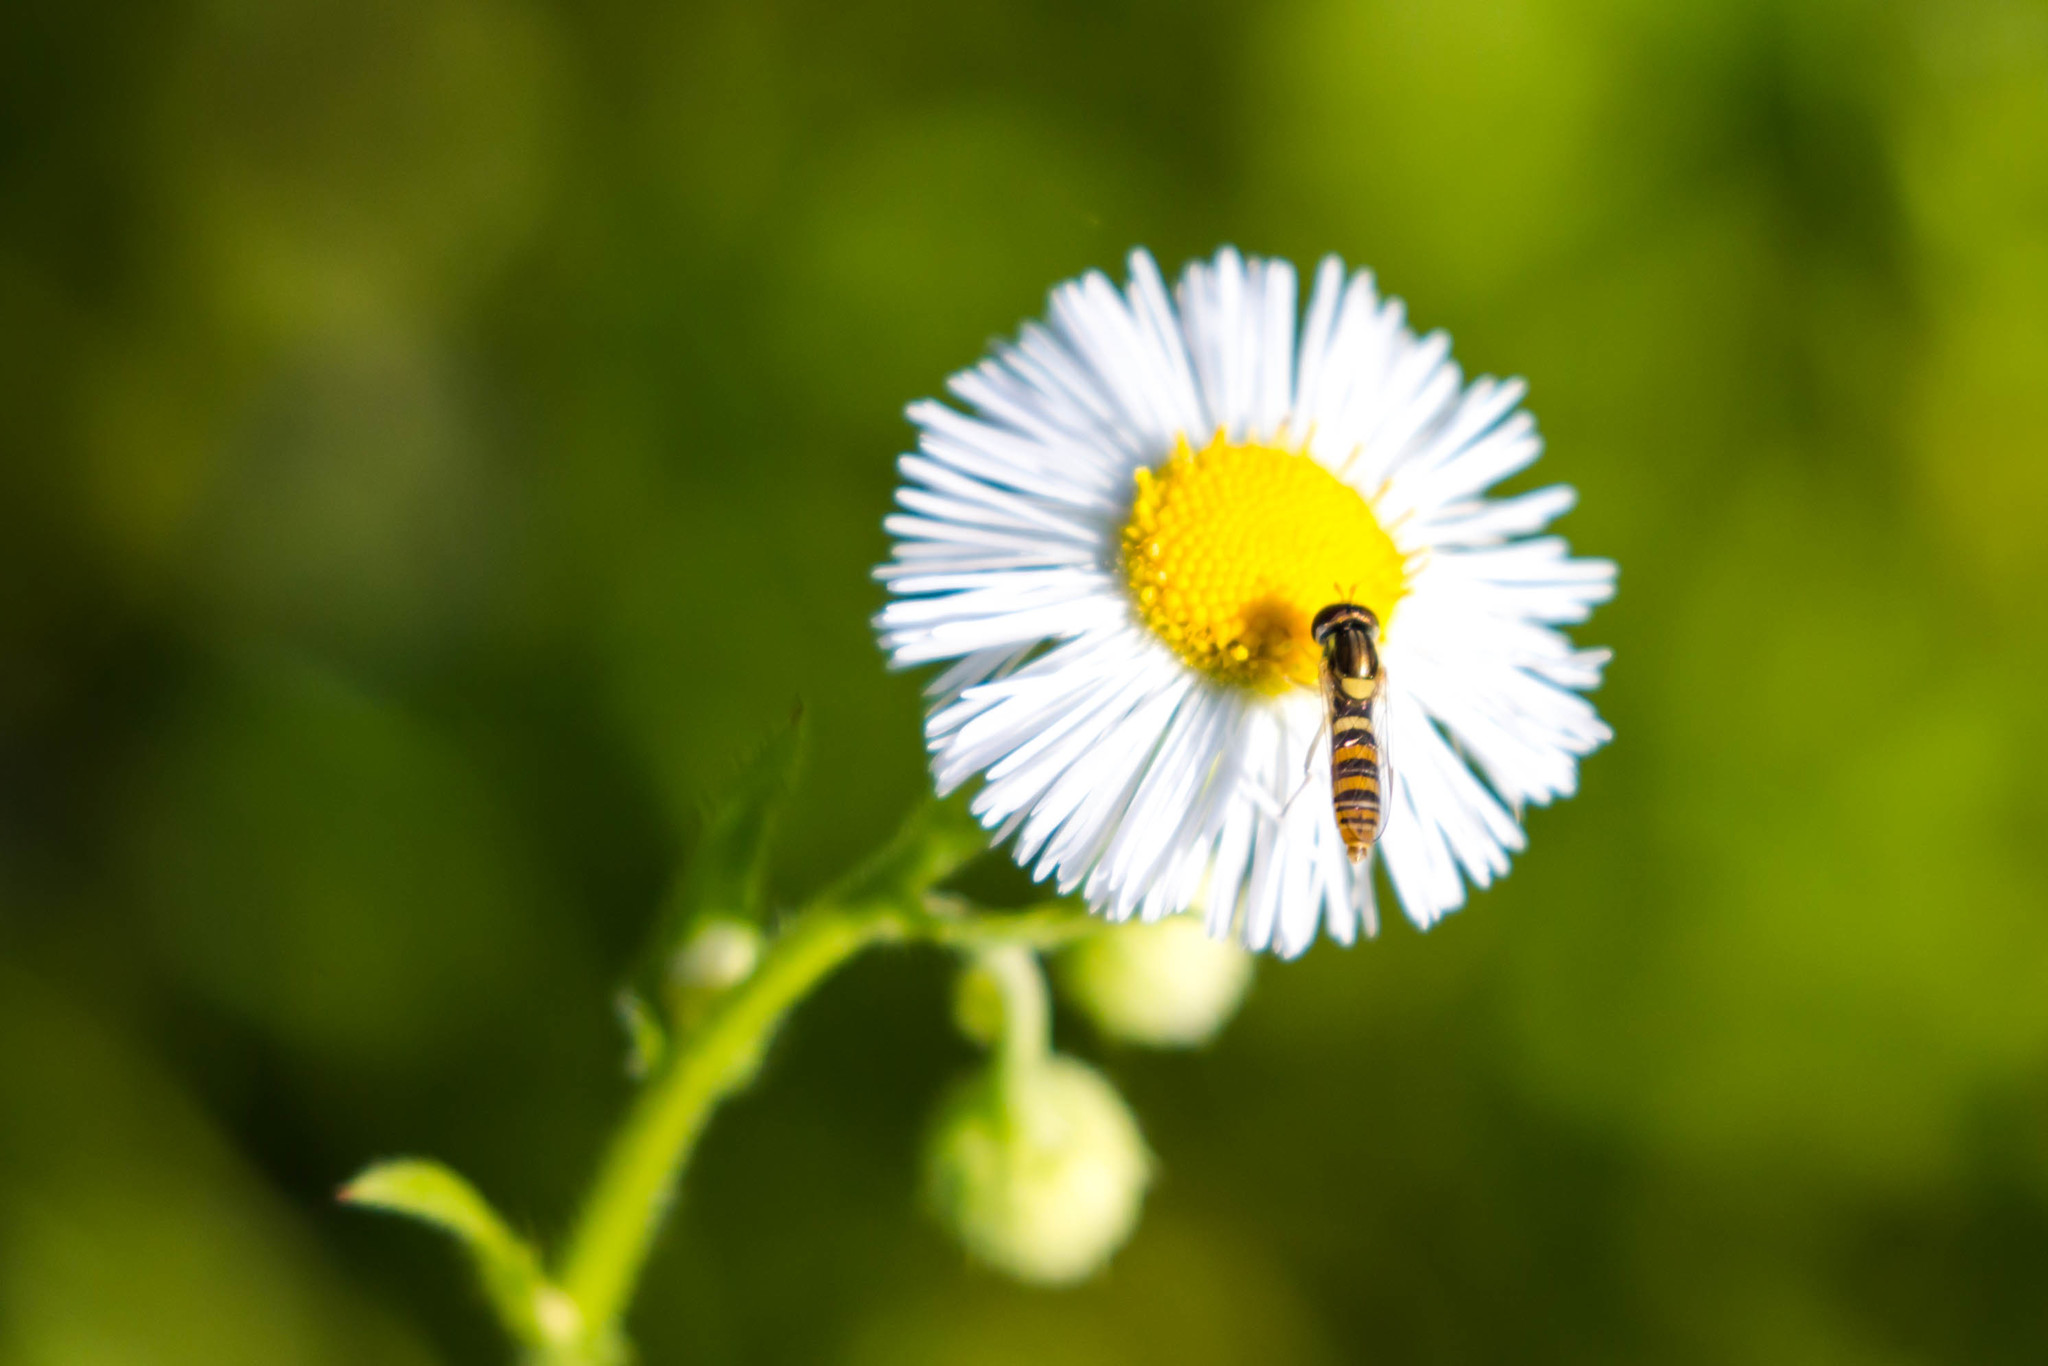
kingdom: Animalia
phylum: Arthropoda
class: Insecta
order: Diptera
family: Syrphidae
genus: Sphaerophoria
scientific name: Sphaerophoria contigua
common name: Tufted globetail
